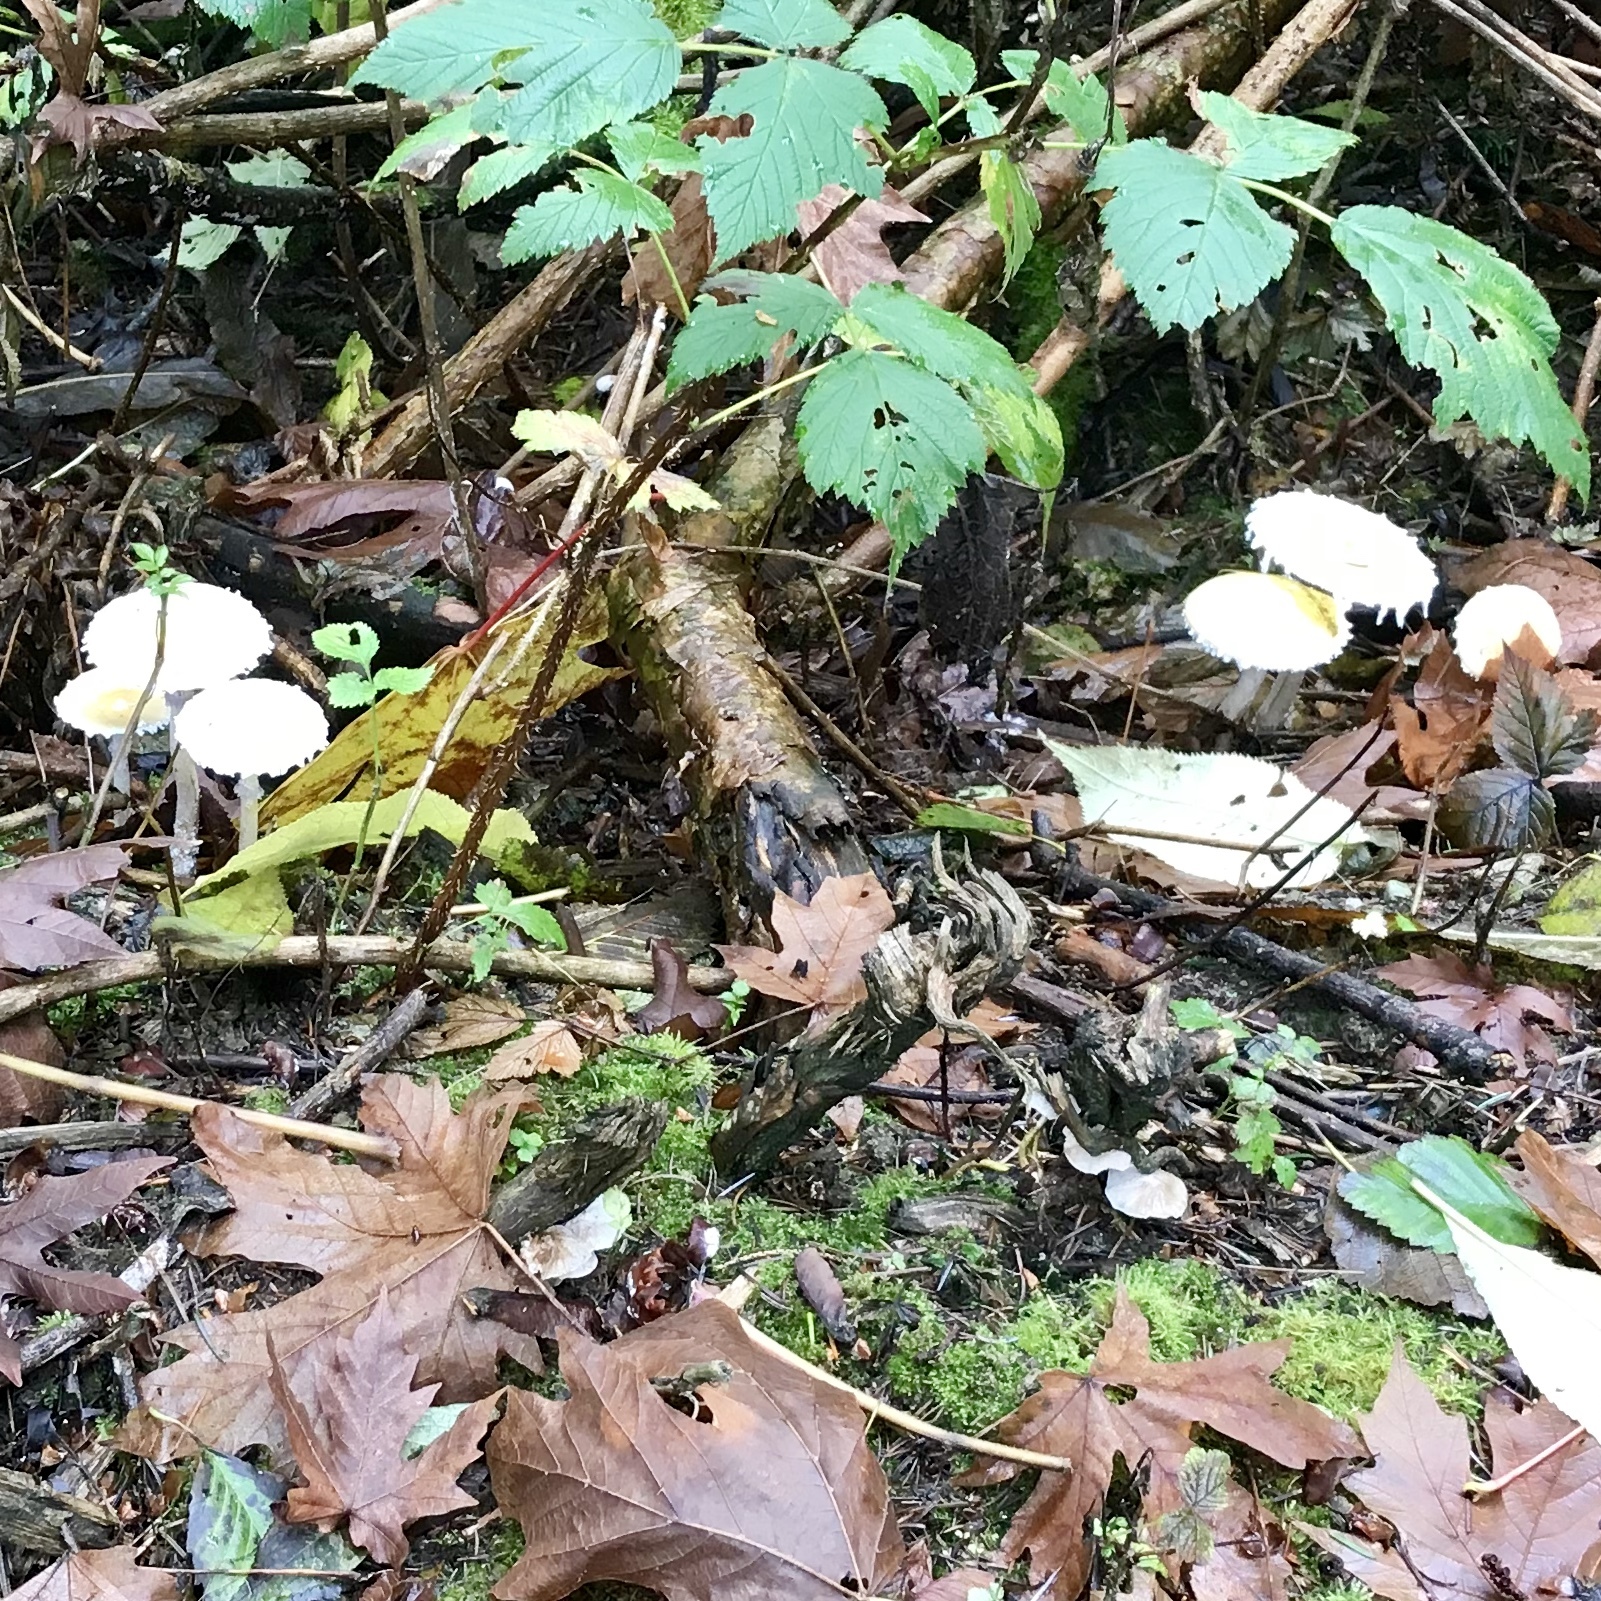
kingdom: Fungi
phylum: Basidiomycota
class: Agaricomycetes
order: Agaricales
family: Strophariaceae
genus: Stropharia
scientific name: Stropharia ambigua
